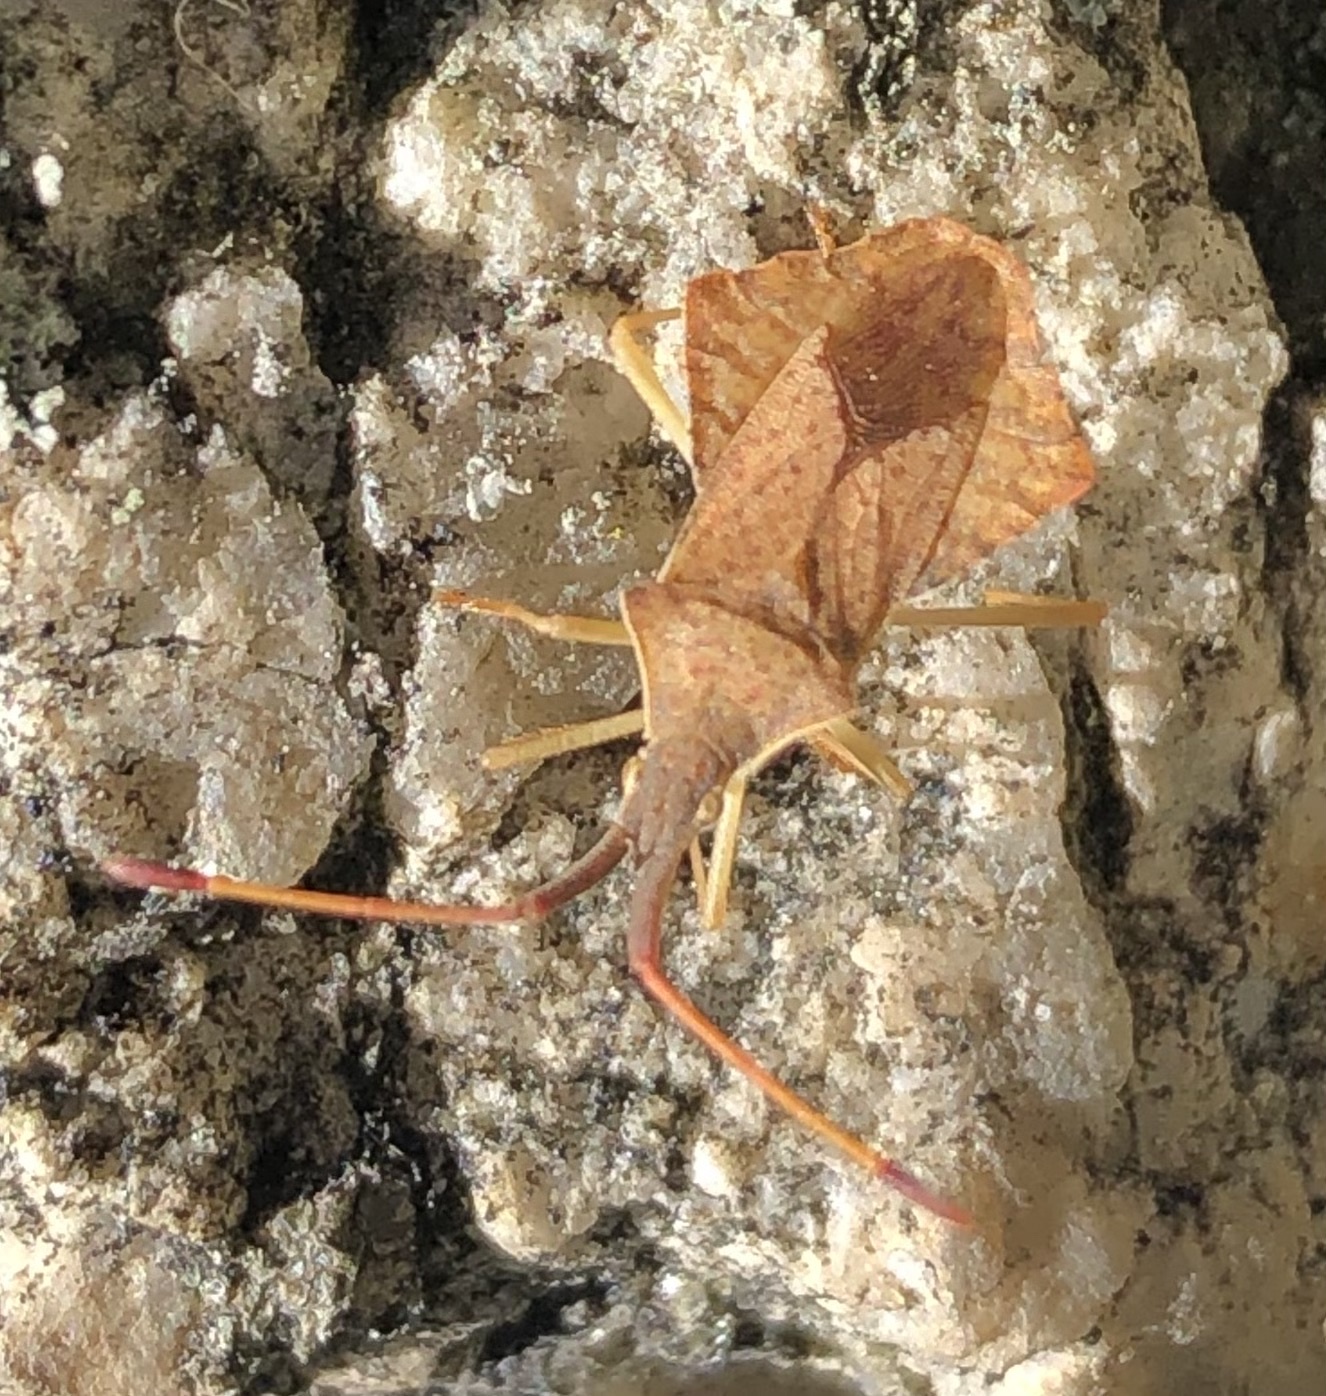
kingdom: Animalia
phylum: Arthropoda
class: Insecta
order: Hemiptera
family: Coreidae
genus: Syromastus
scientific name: Syromastus rhombeus
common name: Rhombic leatherbug
